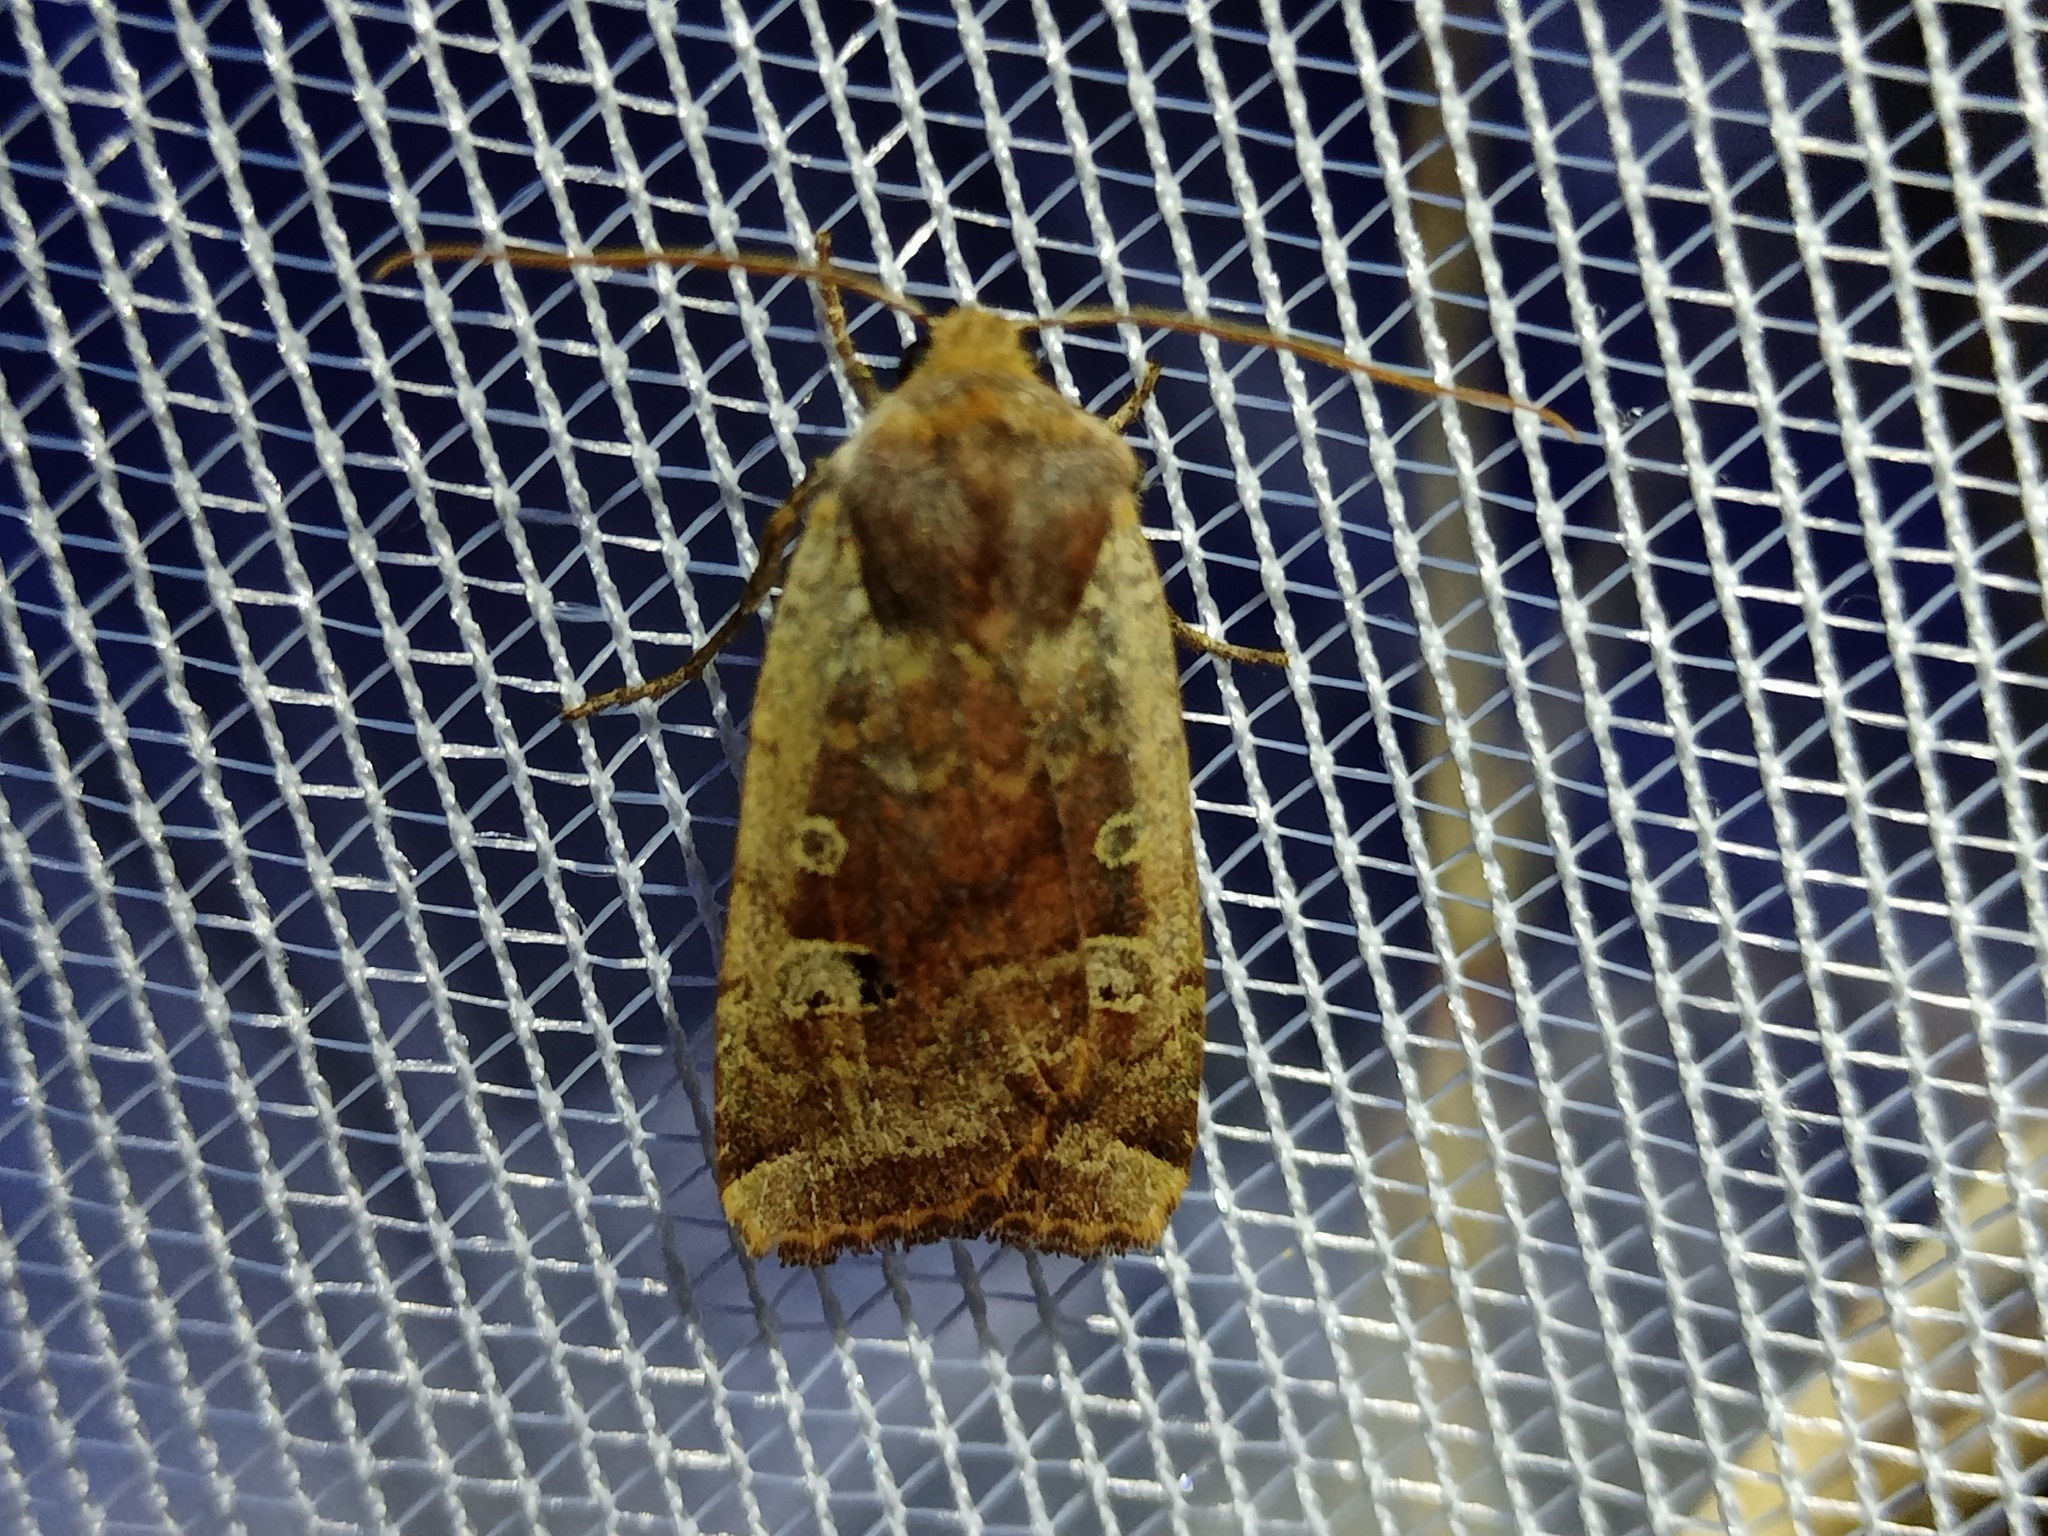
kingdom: Animalia
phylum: Arthropoda
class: Insecta
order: Lepidoptera
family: Noctuidae
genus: Conistra
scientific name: Conistra erythrocephala
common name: Red-headed chestnut
